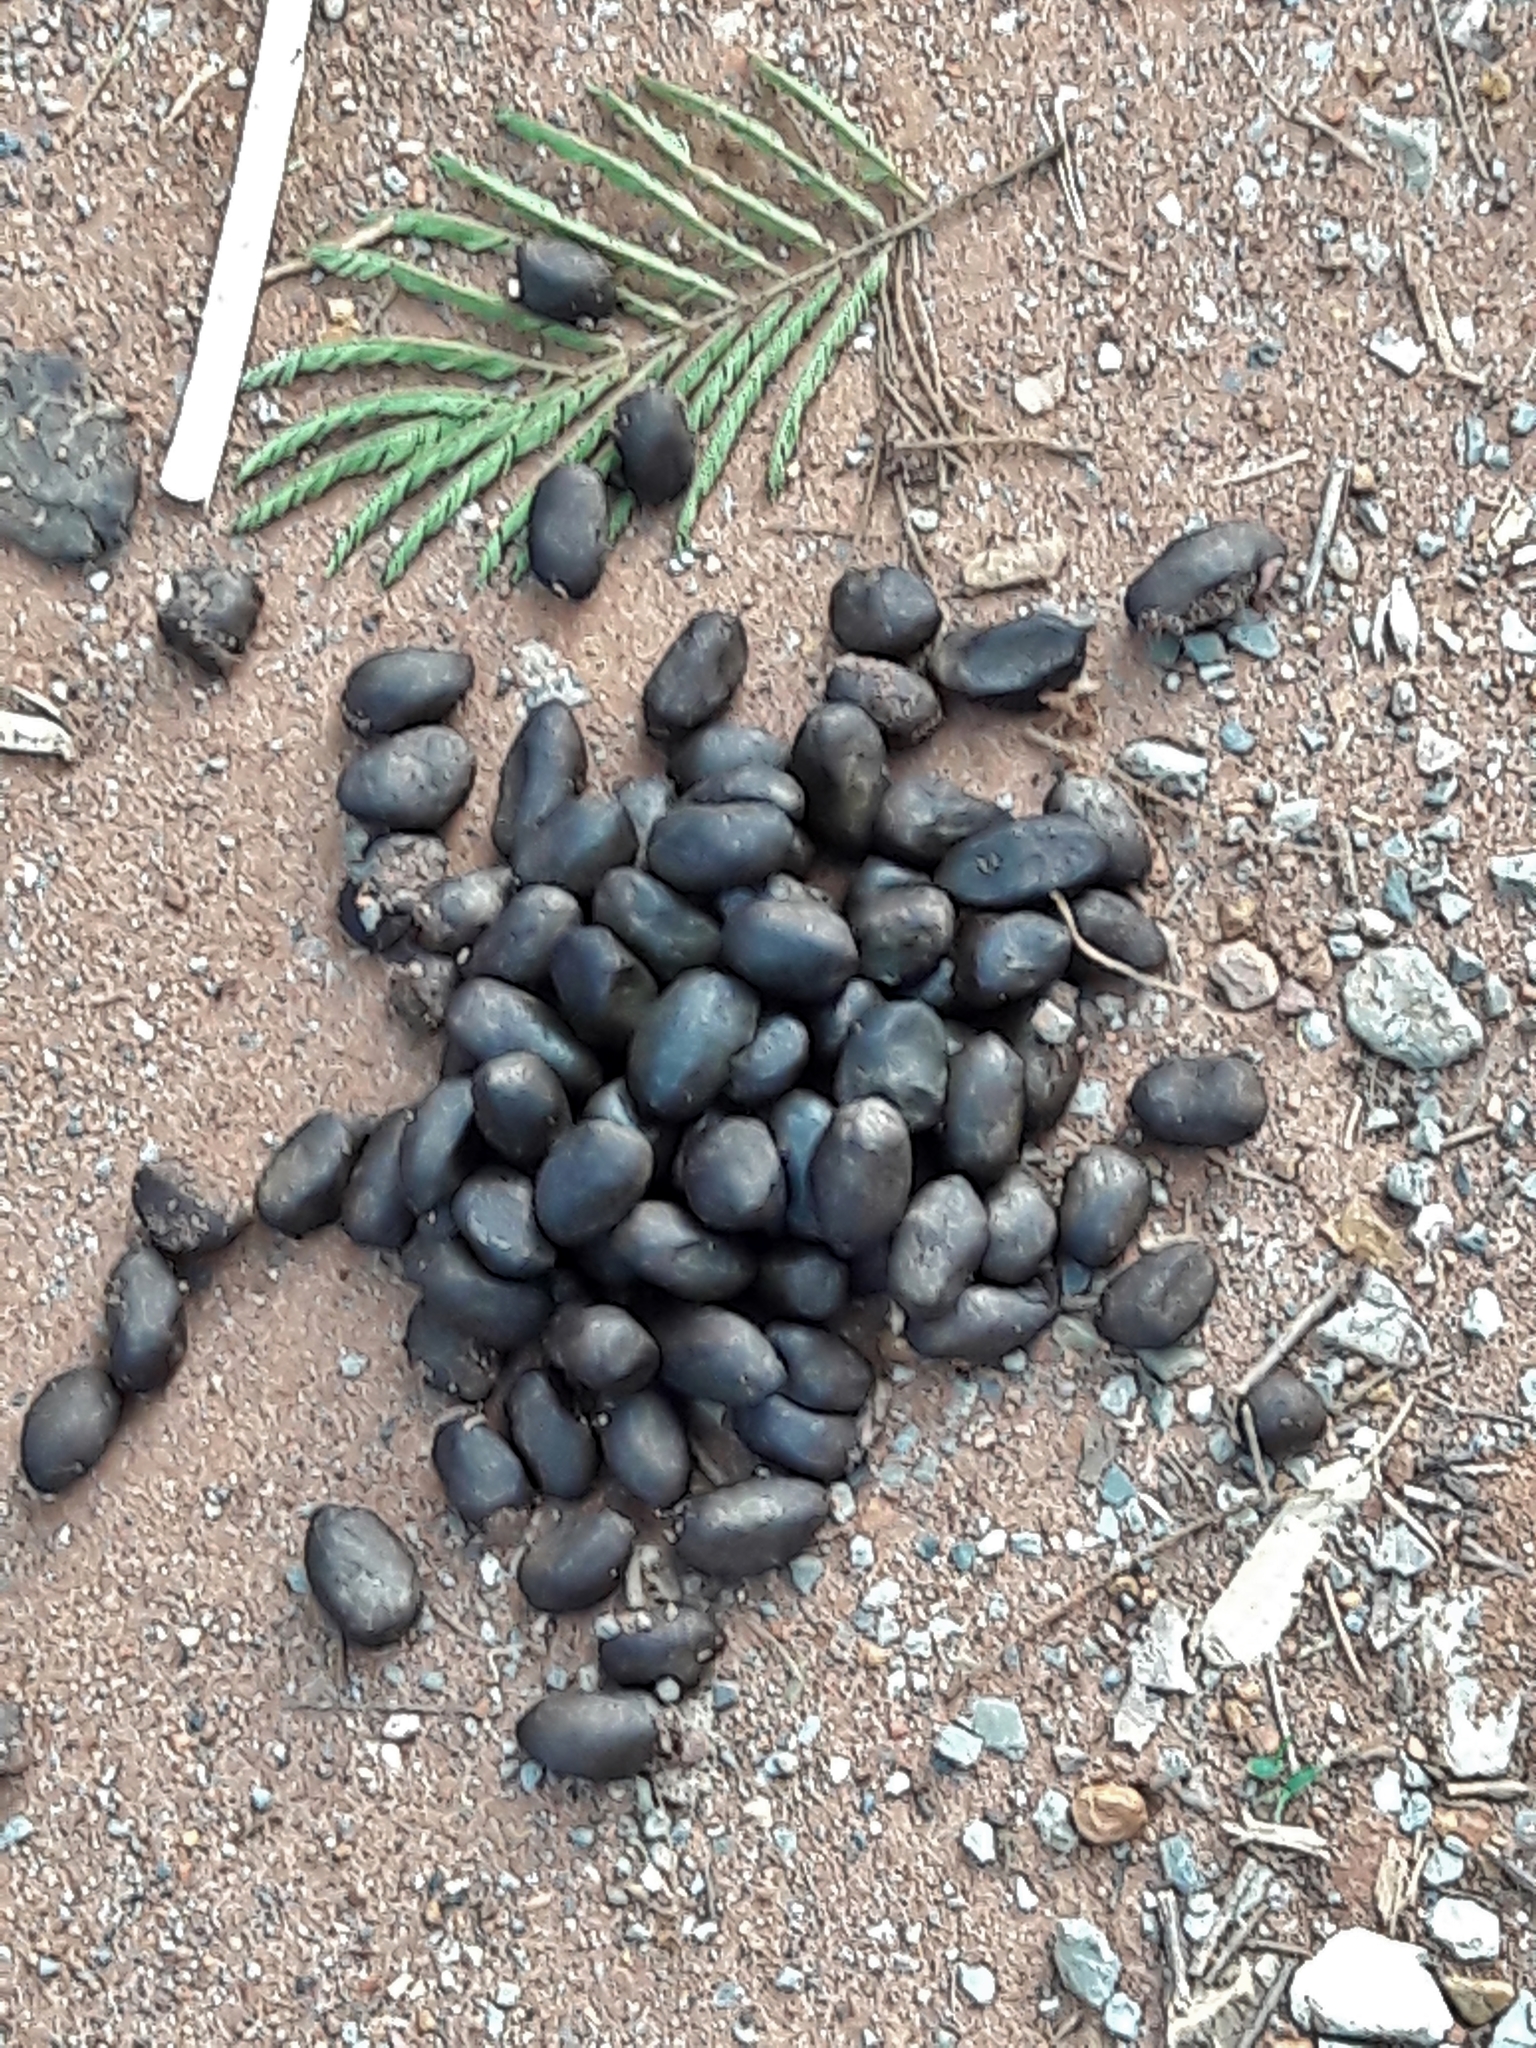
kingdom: Animalia
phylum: Chordata
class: Mammalia
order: Rodentia
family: Caviidae
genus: Hydrochoerus
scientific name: Hydrochoerus hydrochaeris
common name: Capybara
